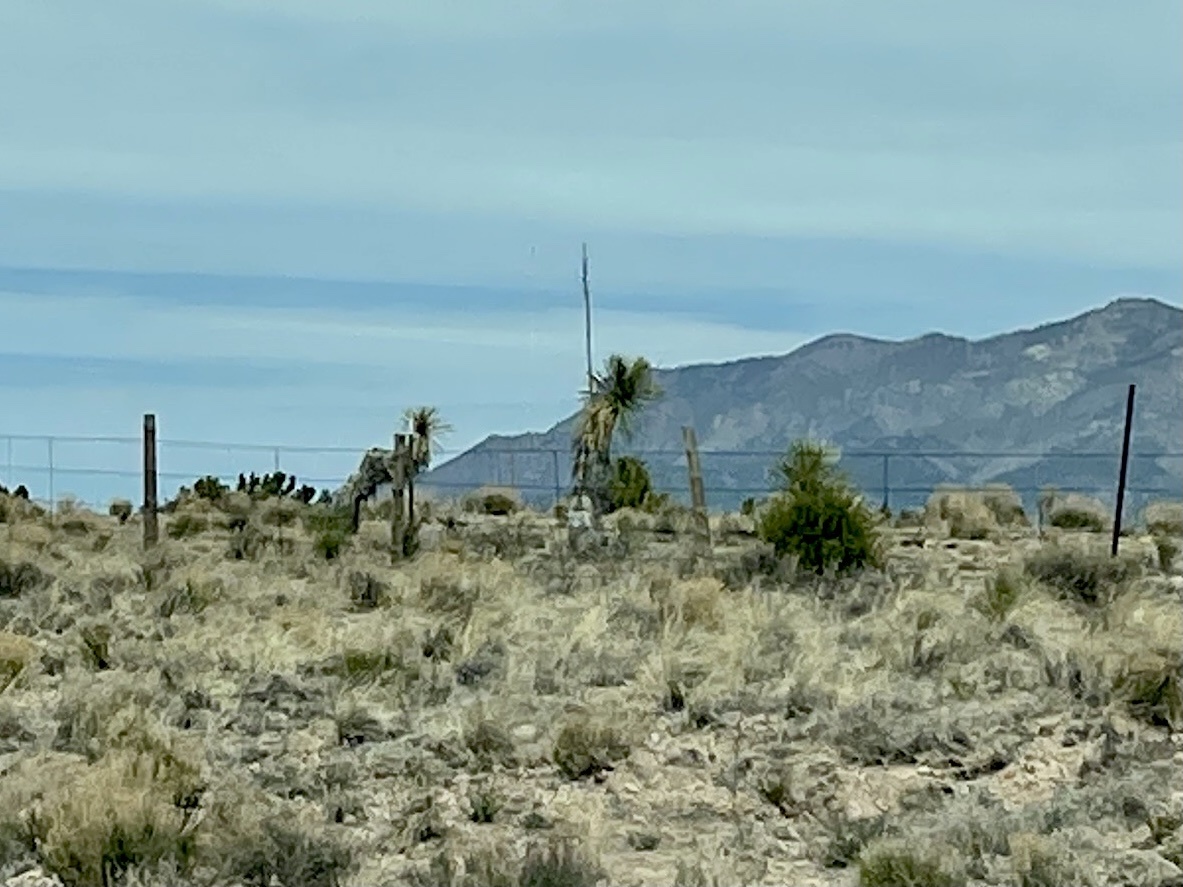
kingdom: Plantae
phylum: Tracheophyta
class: Liliopsida
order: Asparagales
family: Asparagaceae
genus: Yucca
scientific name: Yucca elata
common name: Palmella
